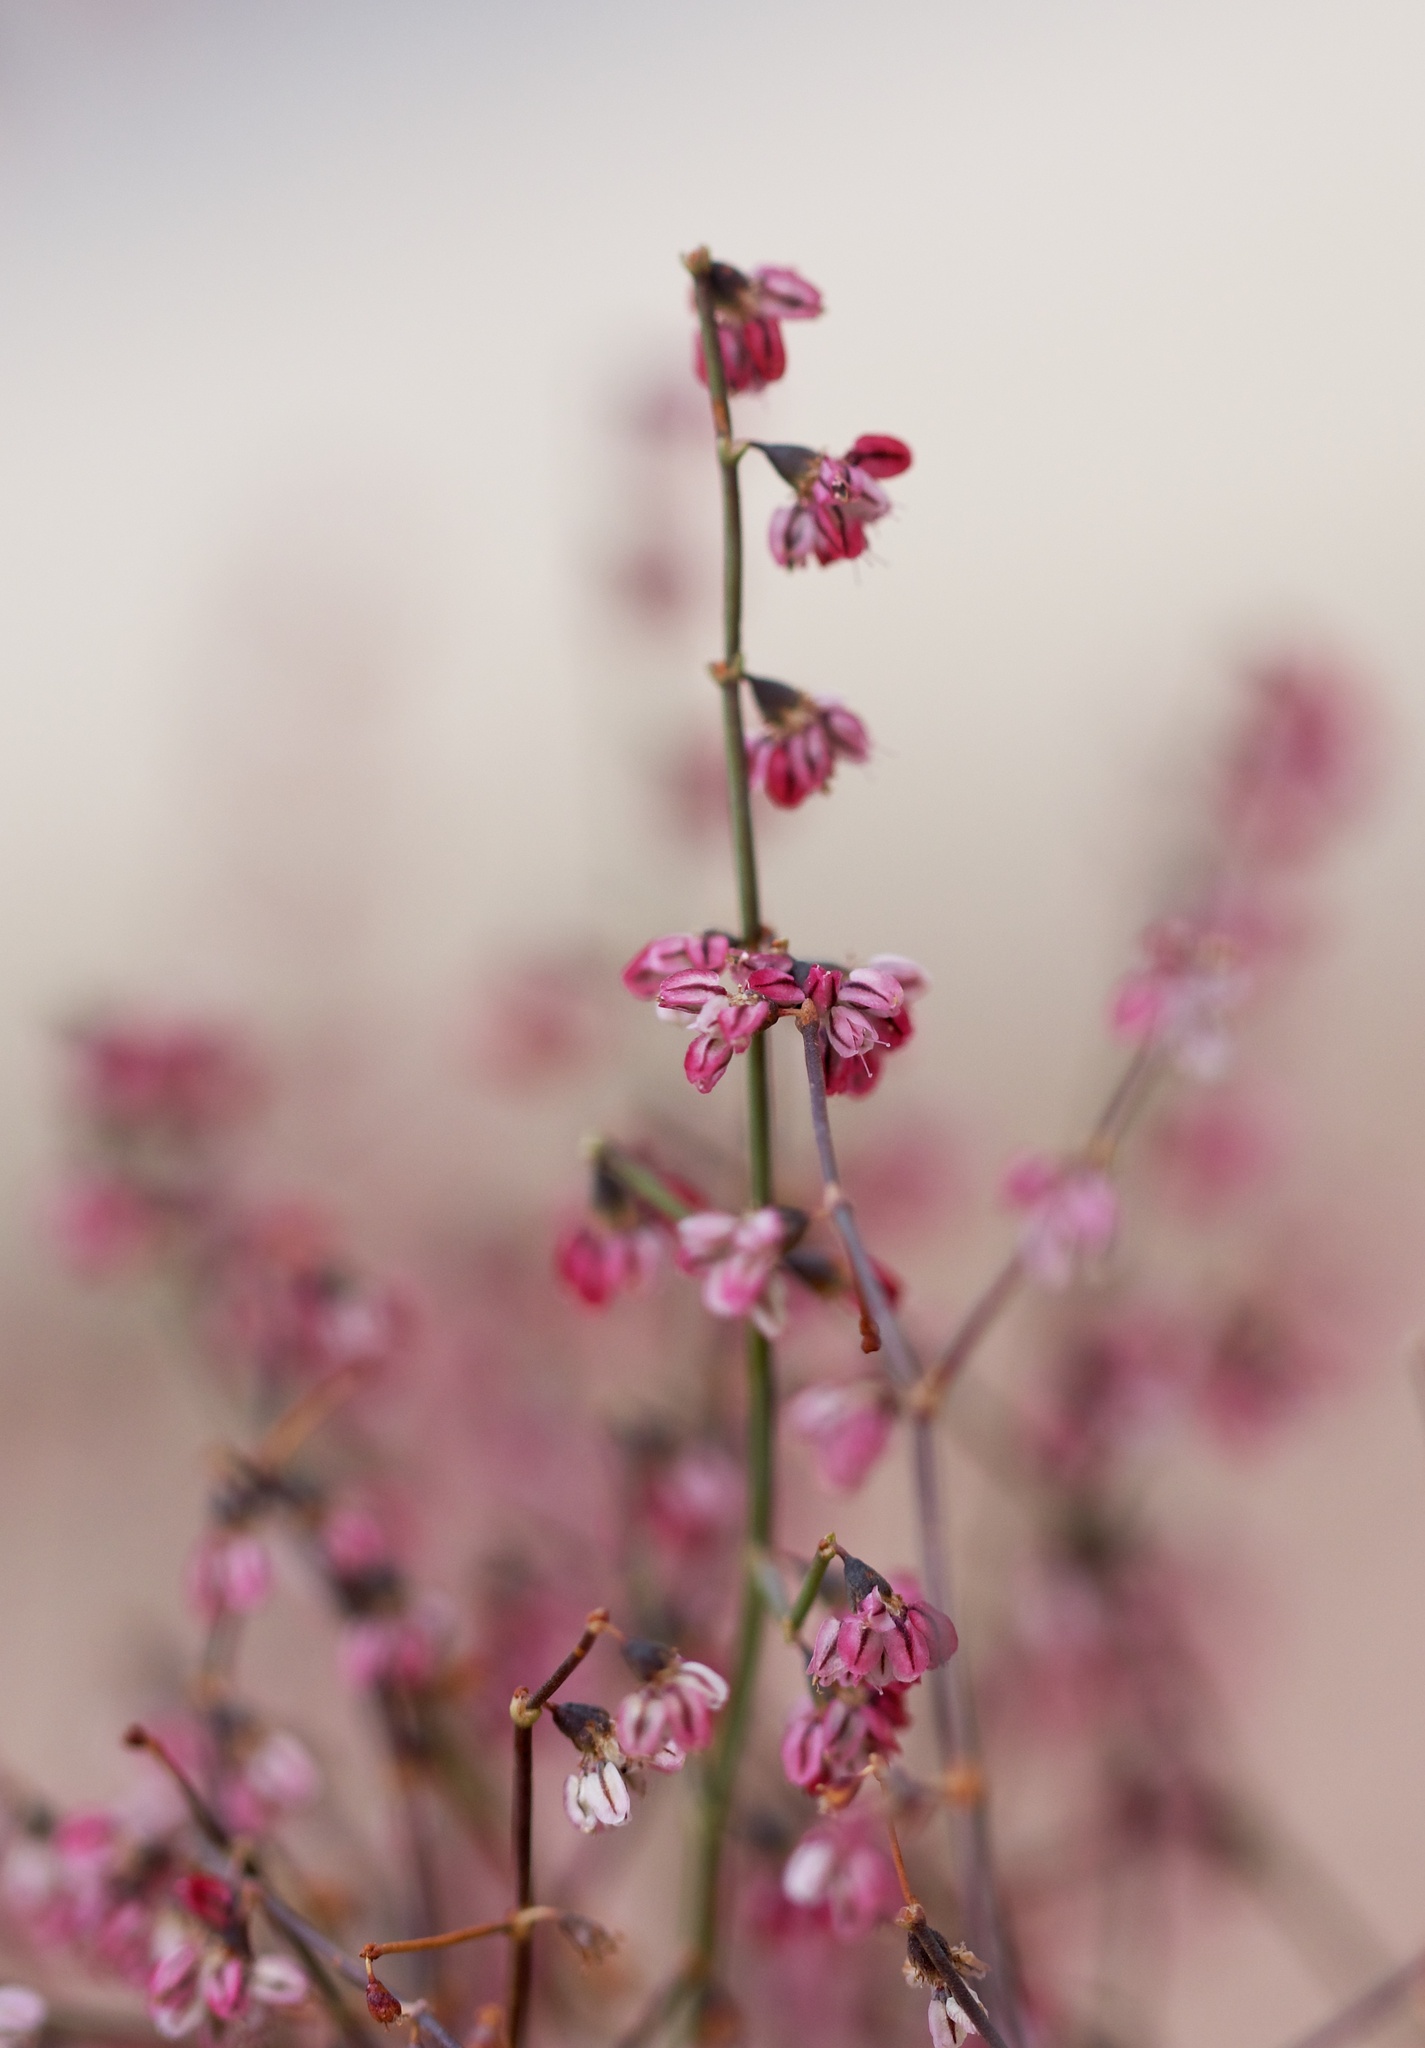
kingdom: Plantae
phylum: Tracheophyta
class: Magnoliopsida
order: Caryophyllales
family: Polygonaceae
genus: Eriogonum
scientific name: Eriogonum deflexum
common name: Skeleton-weed
